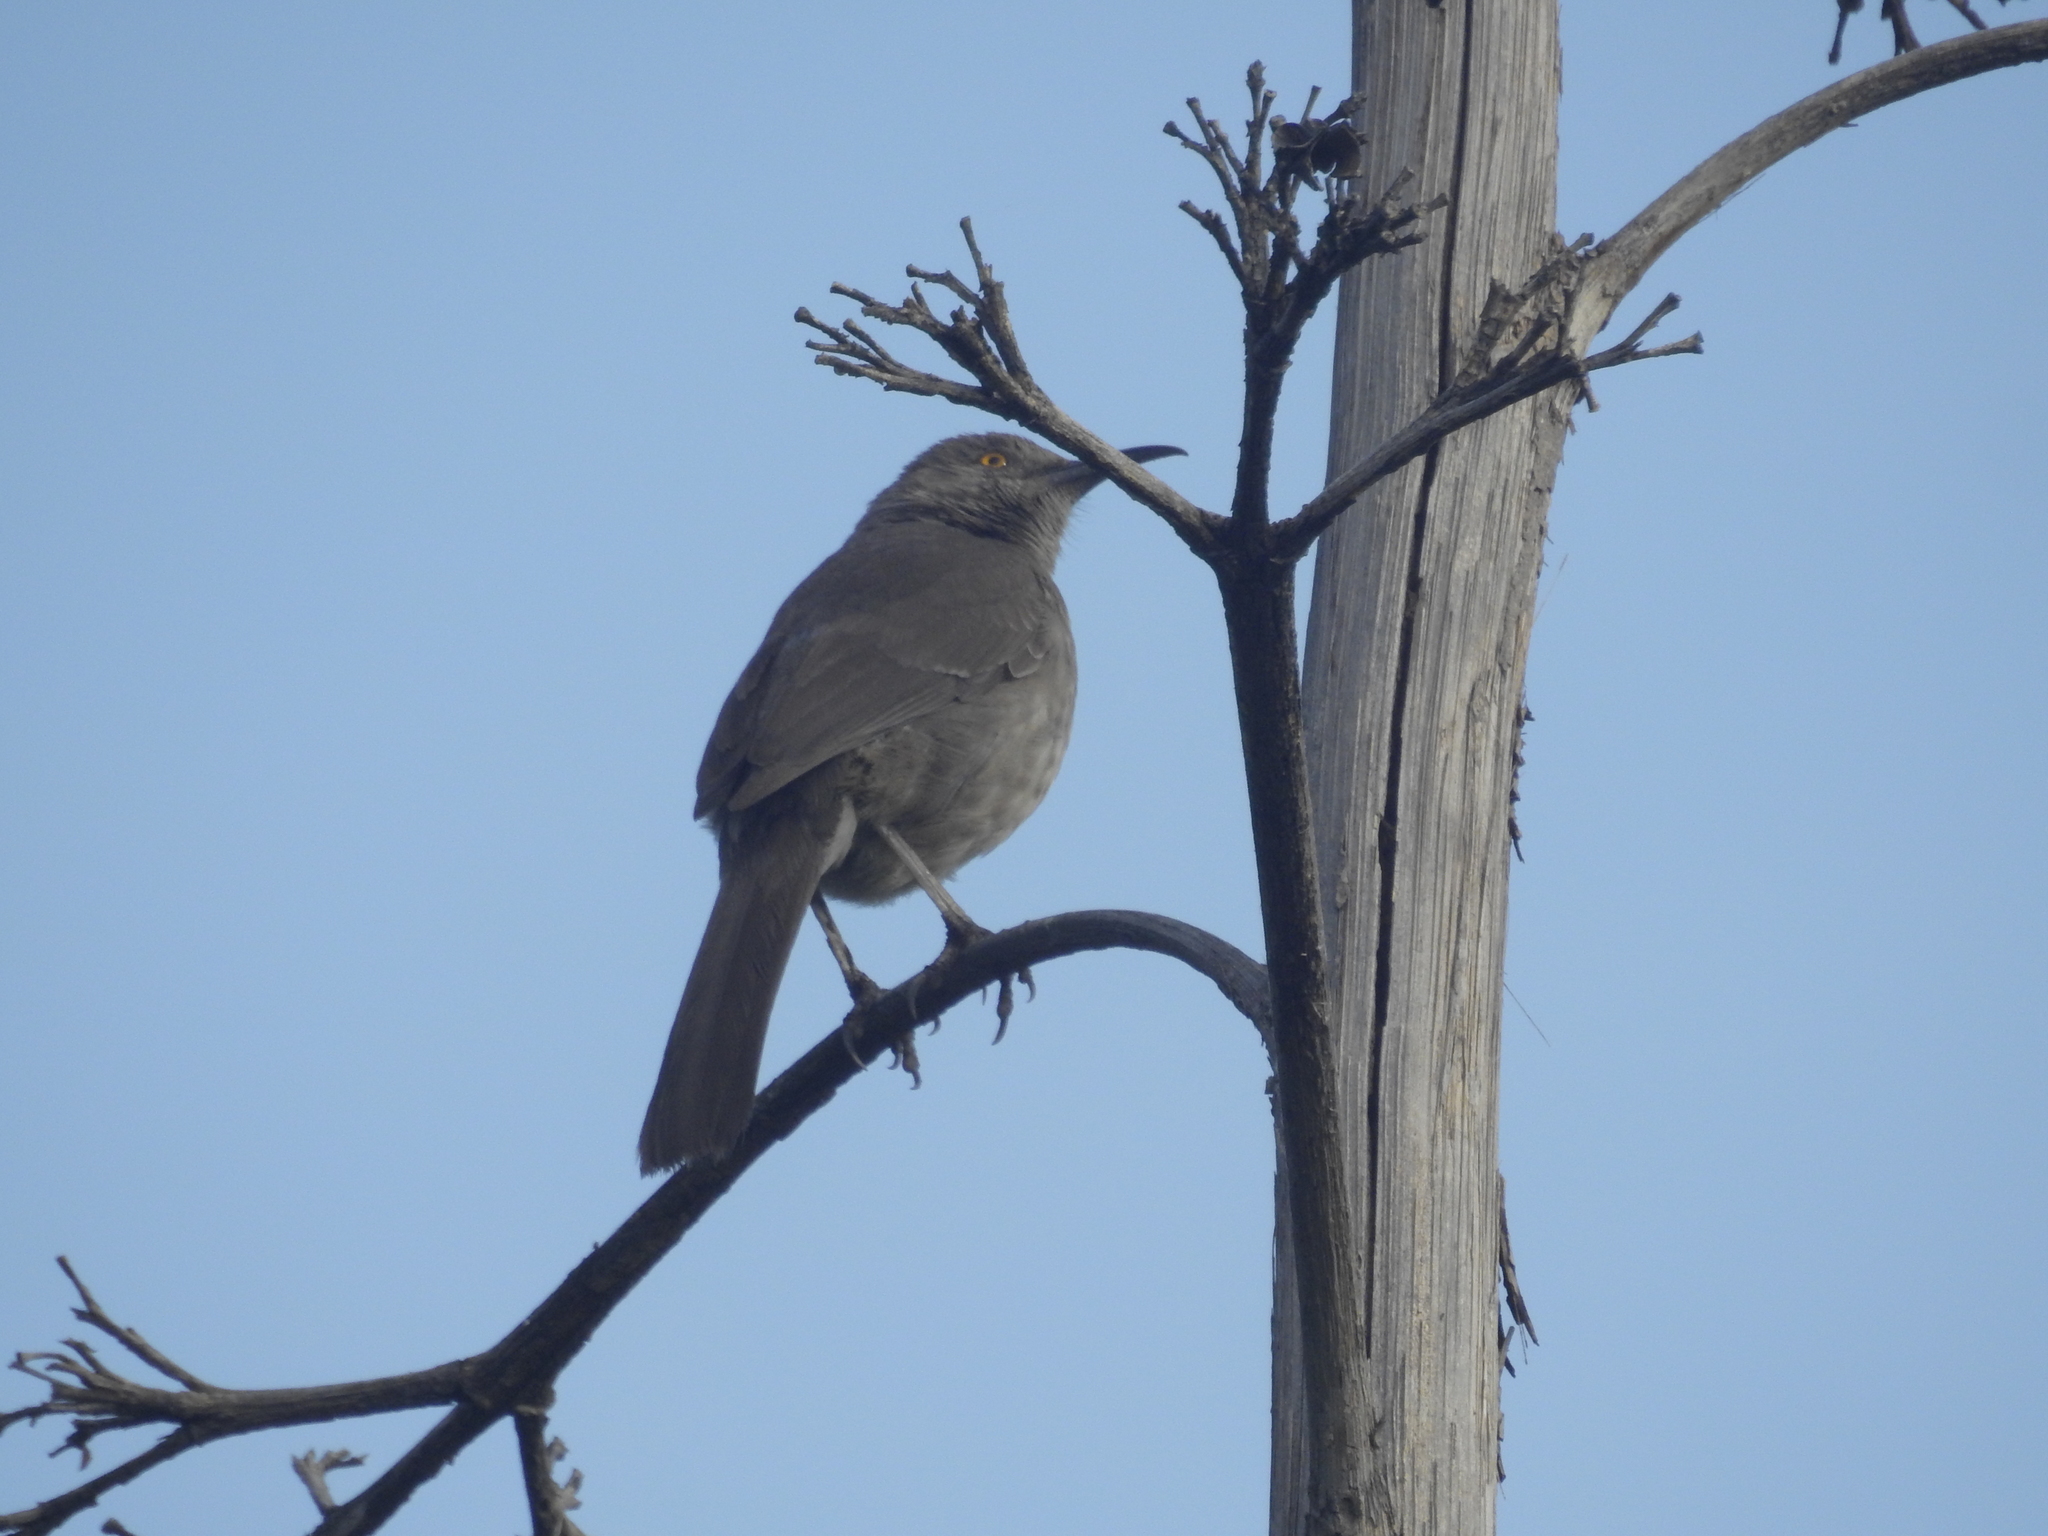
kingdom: Animalia
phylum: Chordata
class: Aves
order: Passeriformes
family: Mimidae
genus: Toxostoma
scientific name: Toxostoma curvirostre
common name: Curve-billed thrasher
